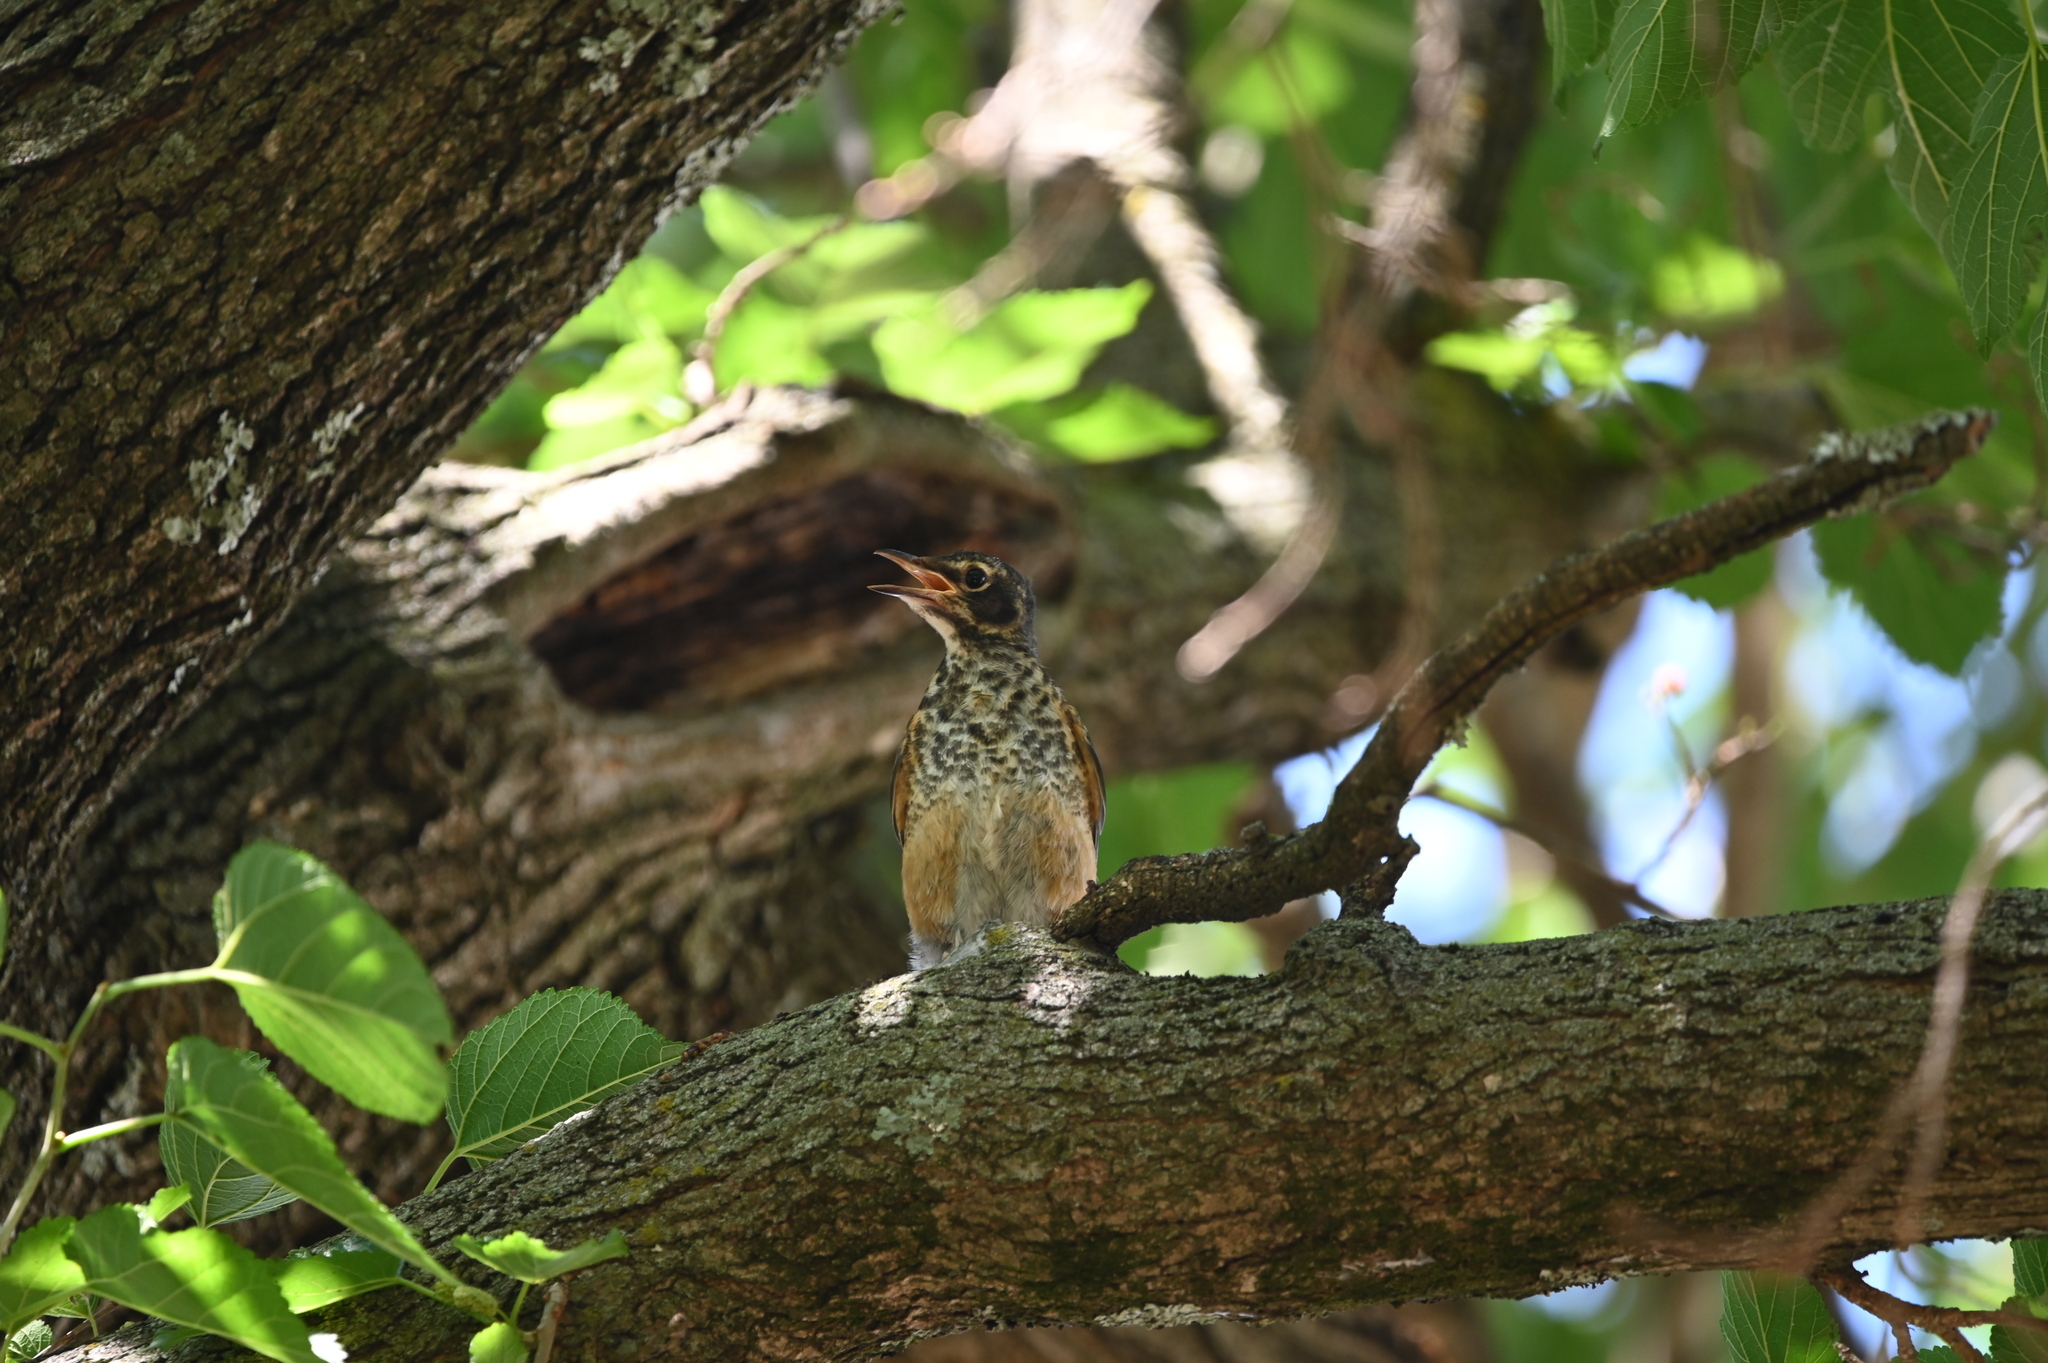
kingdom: Animalia
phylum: Chordata
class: Aves
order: Passeriformes
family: Turdidae
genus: Turdus
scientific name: Turdus migratorius
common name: American robin
